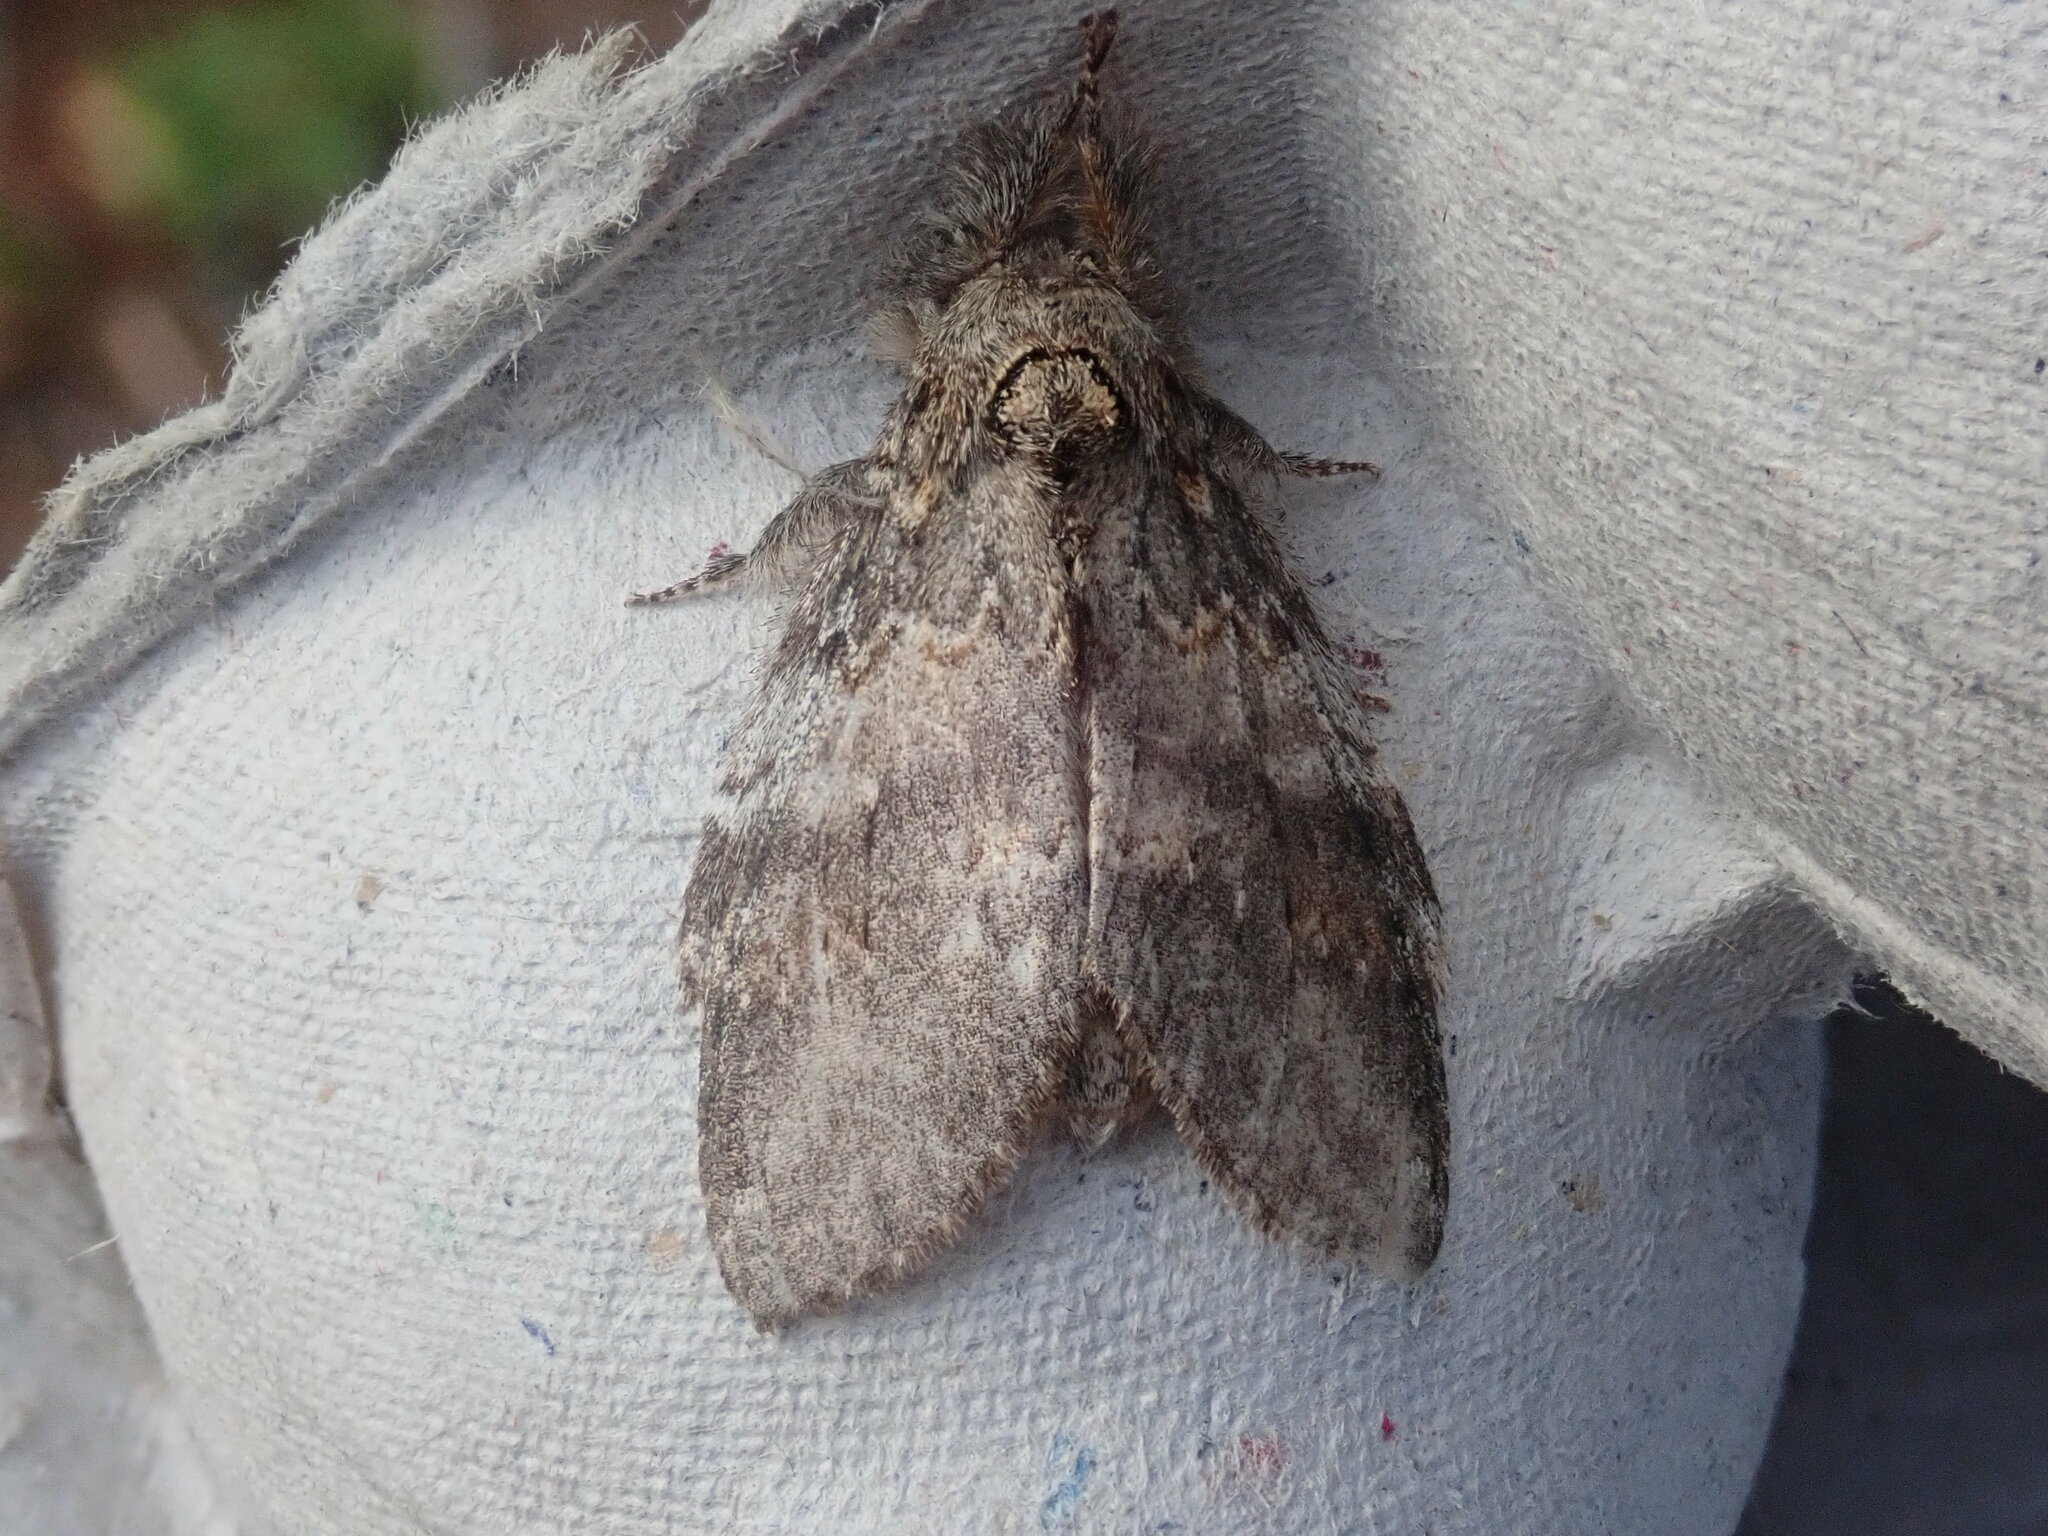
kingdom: Animalia
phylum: Arthropoda
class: Insecta
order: Lepidoptera
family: Notodontidae
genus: Peridea
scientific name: Peridea angulosa
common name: Angulose prominent
